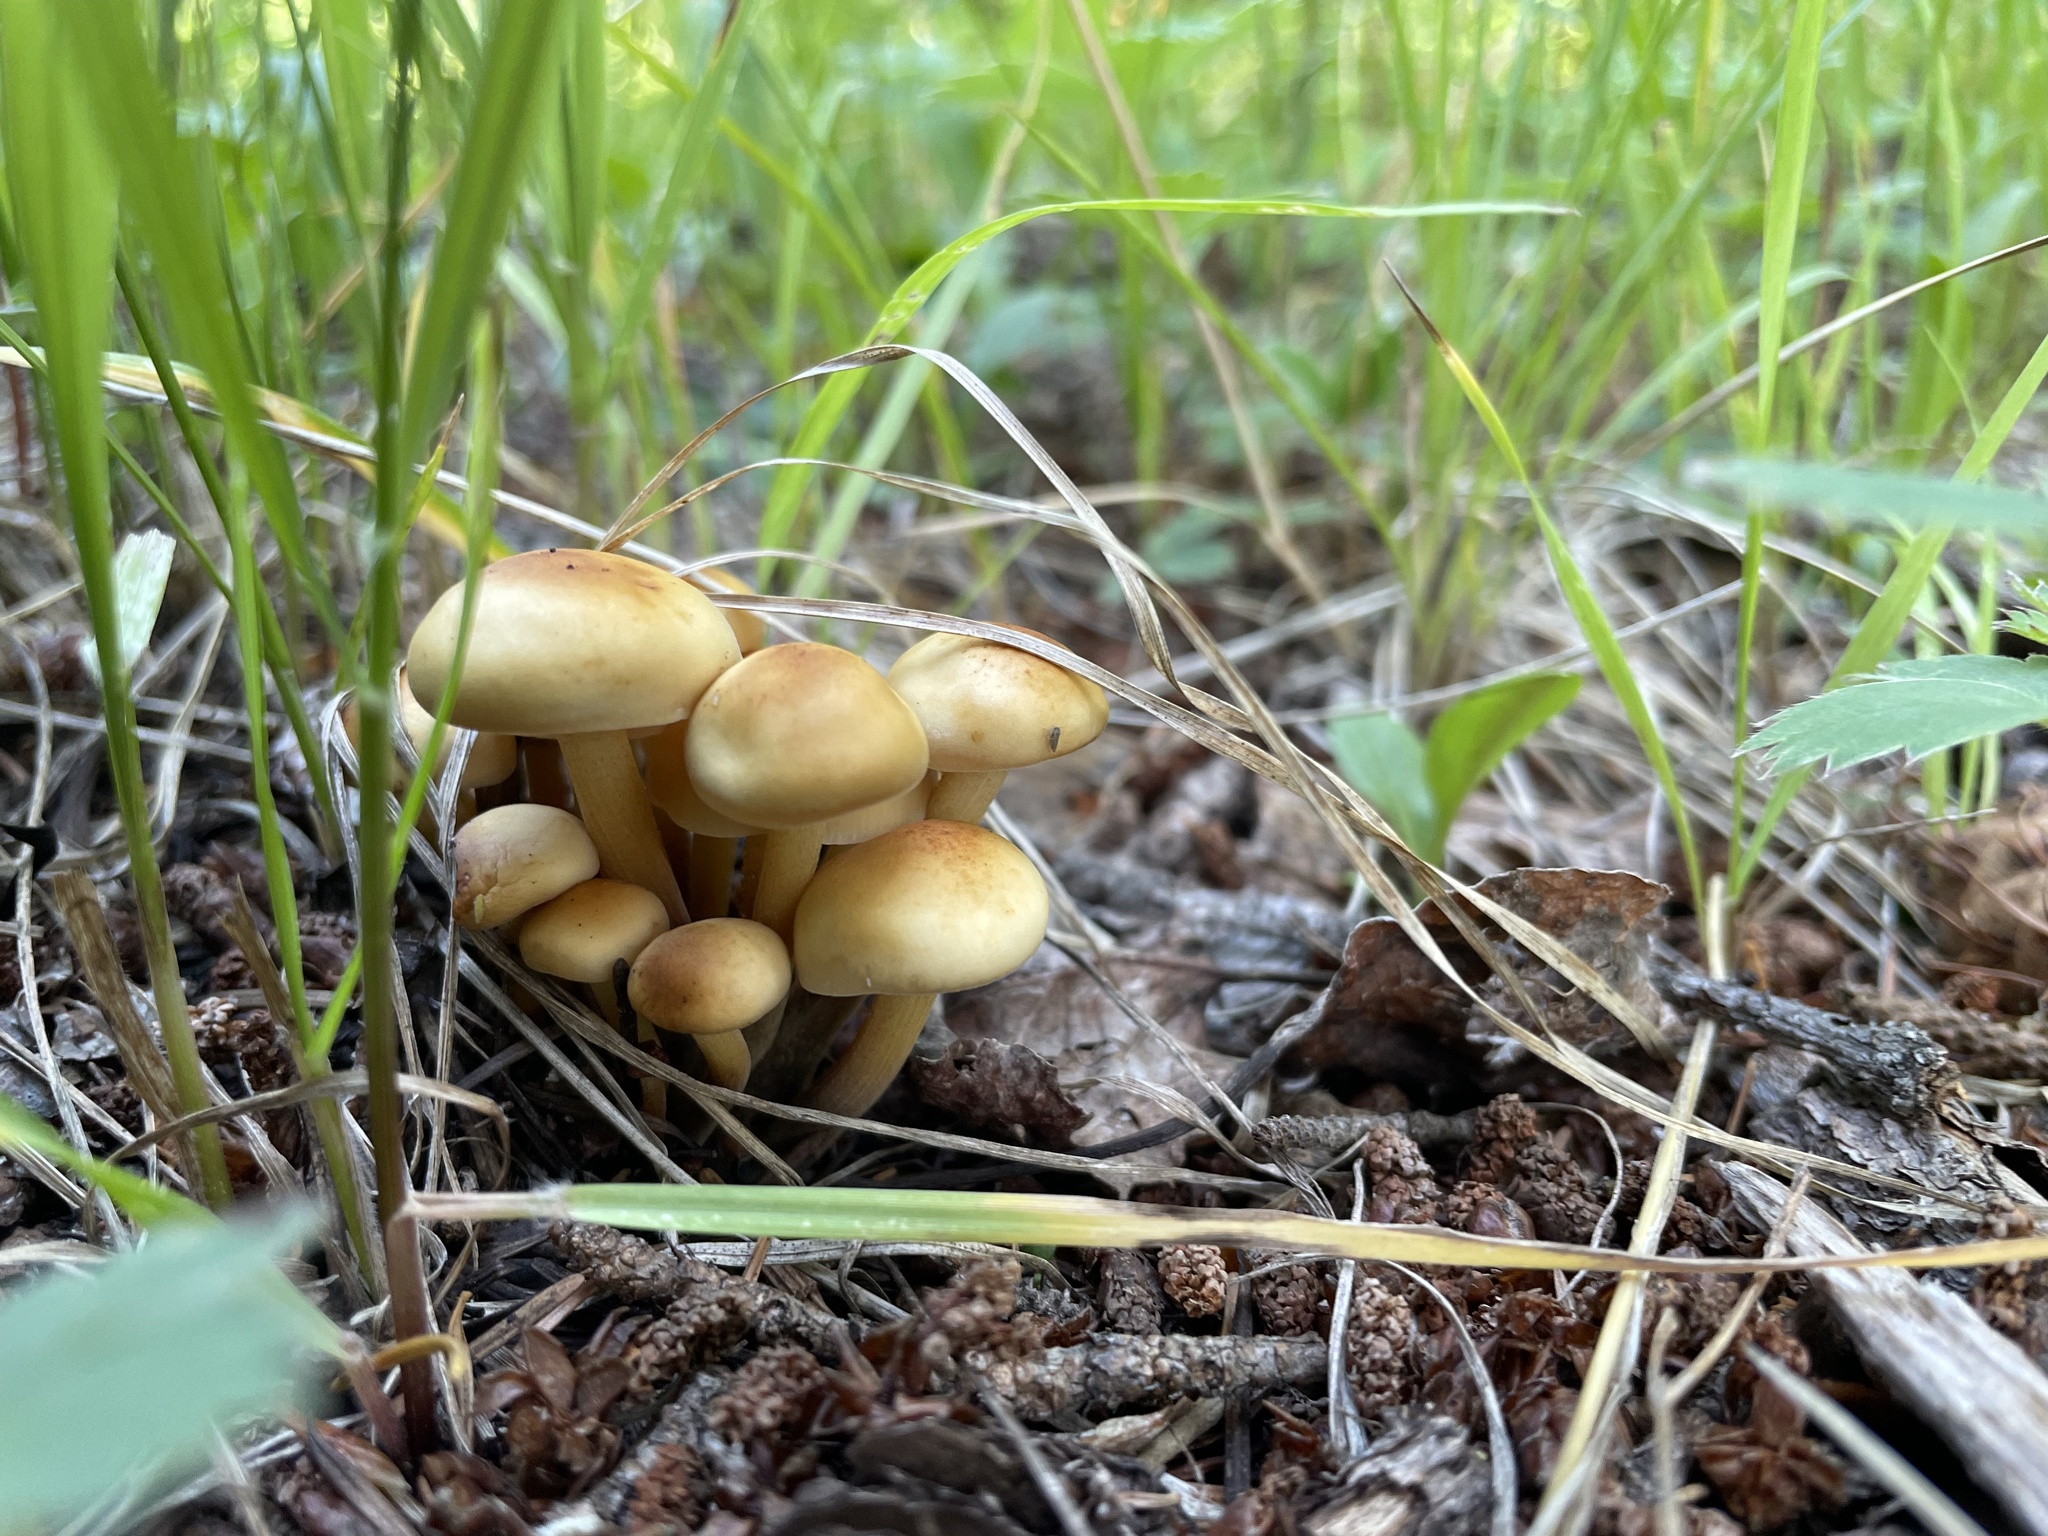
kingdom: Fungi
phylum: Basidiomycota
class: Agaricomycetes
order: Agaricales
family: Physalacriaceae
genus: Flammulina
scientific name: Flammulina populicola
